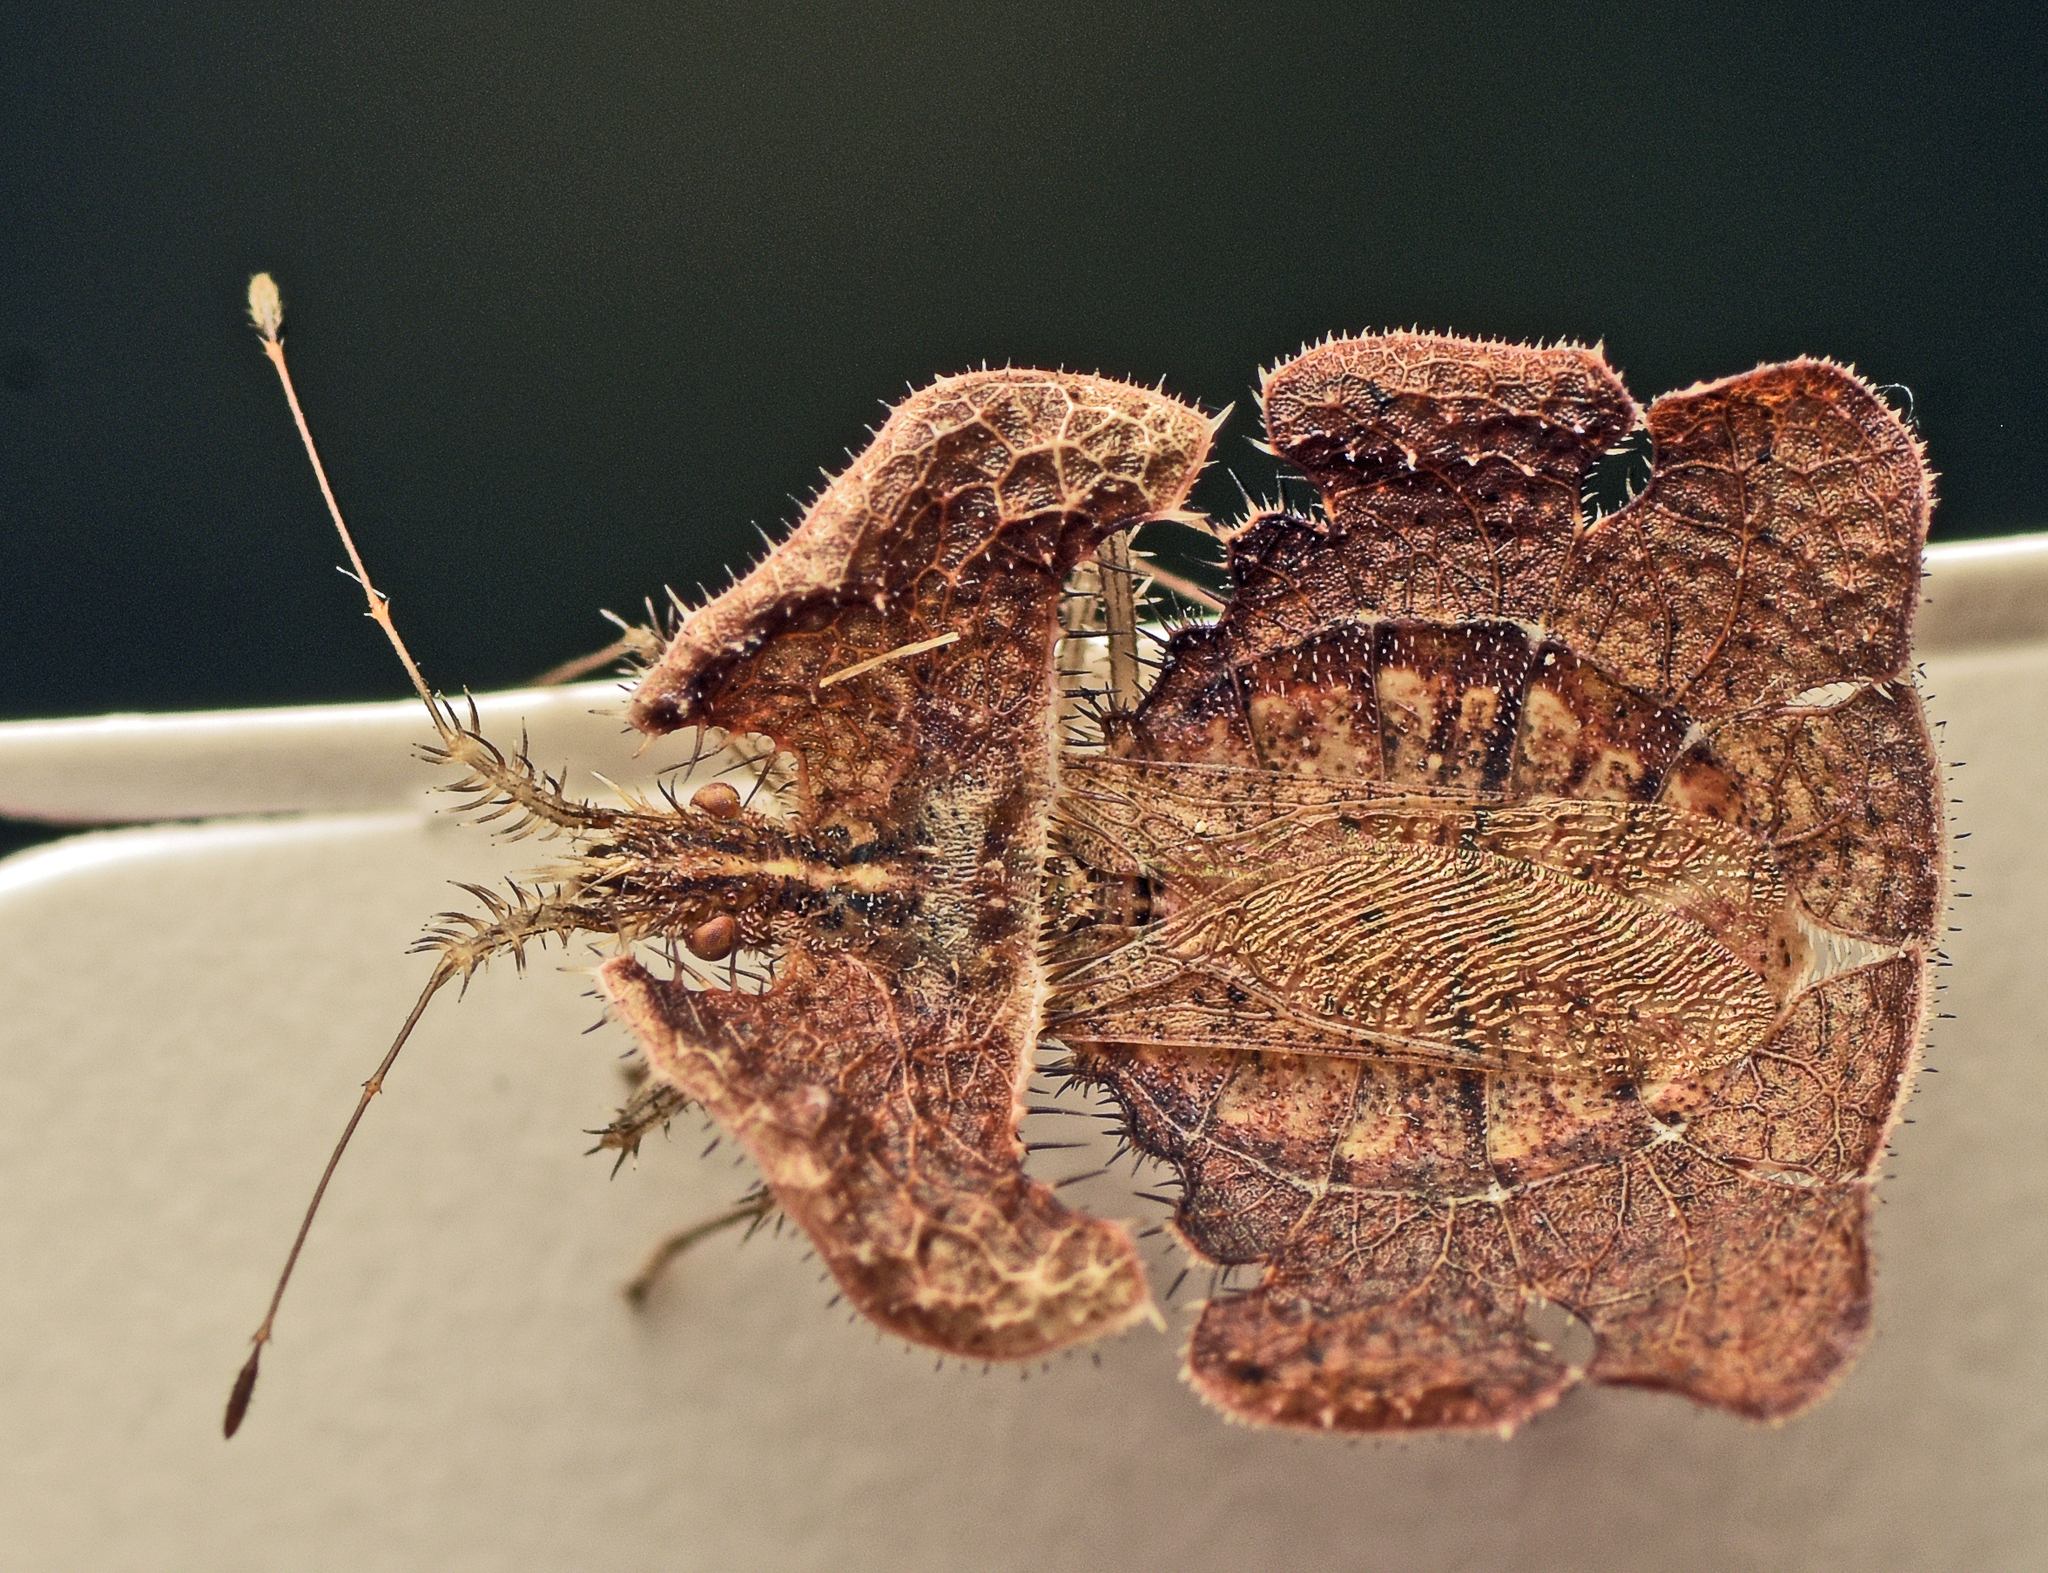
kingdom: Animalia
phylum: Arthropoda
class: Insecta
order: Hemiptera
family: Coreidae
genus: Tongorma
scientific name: Tongorma latreillii
